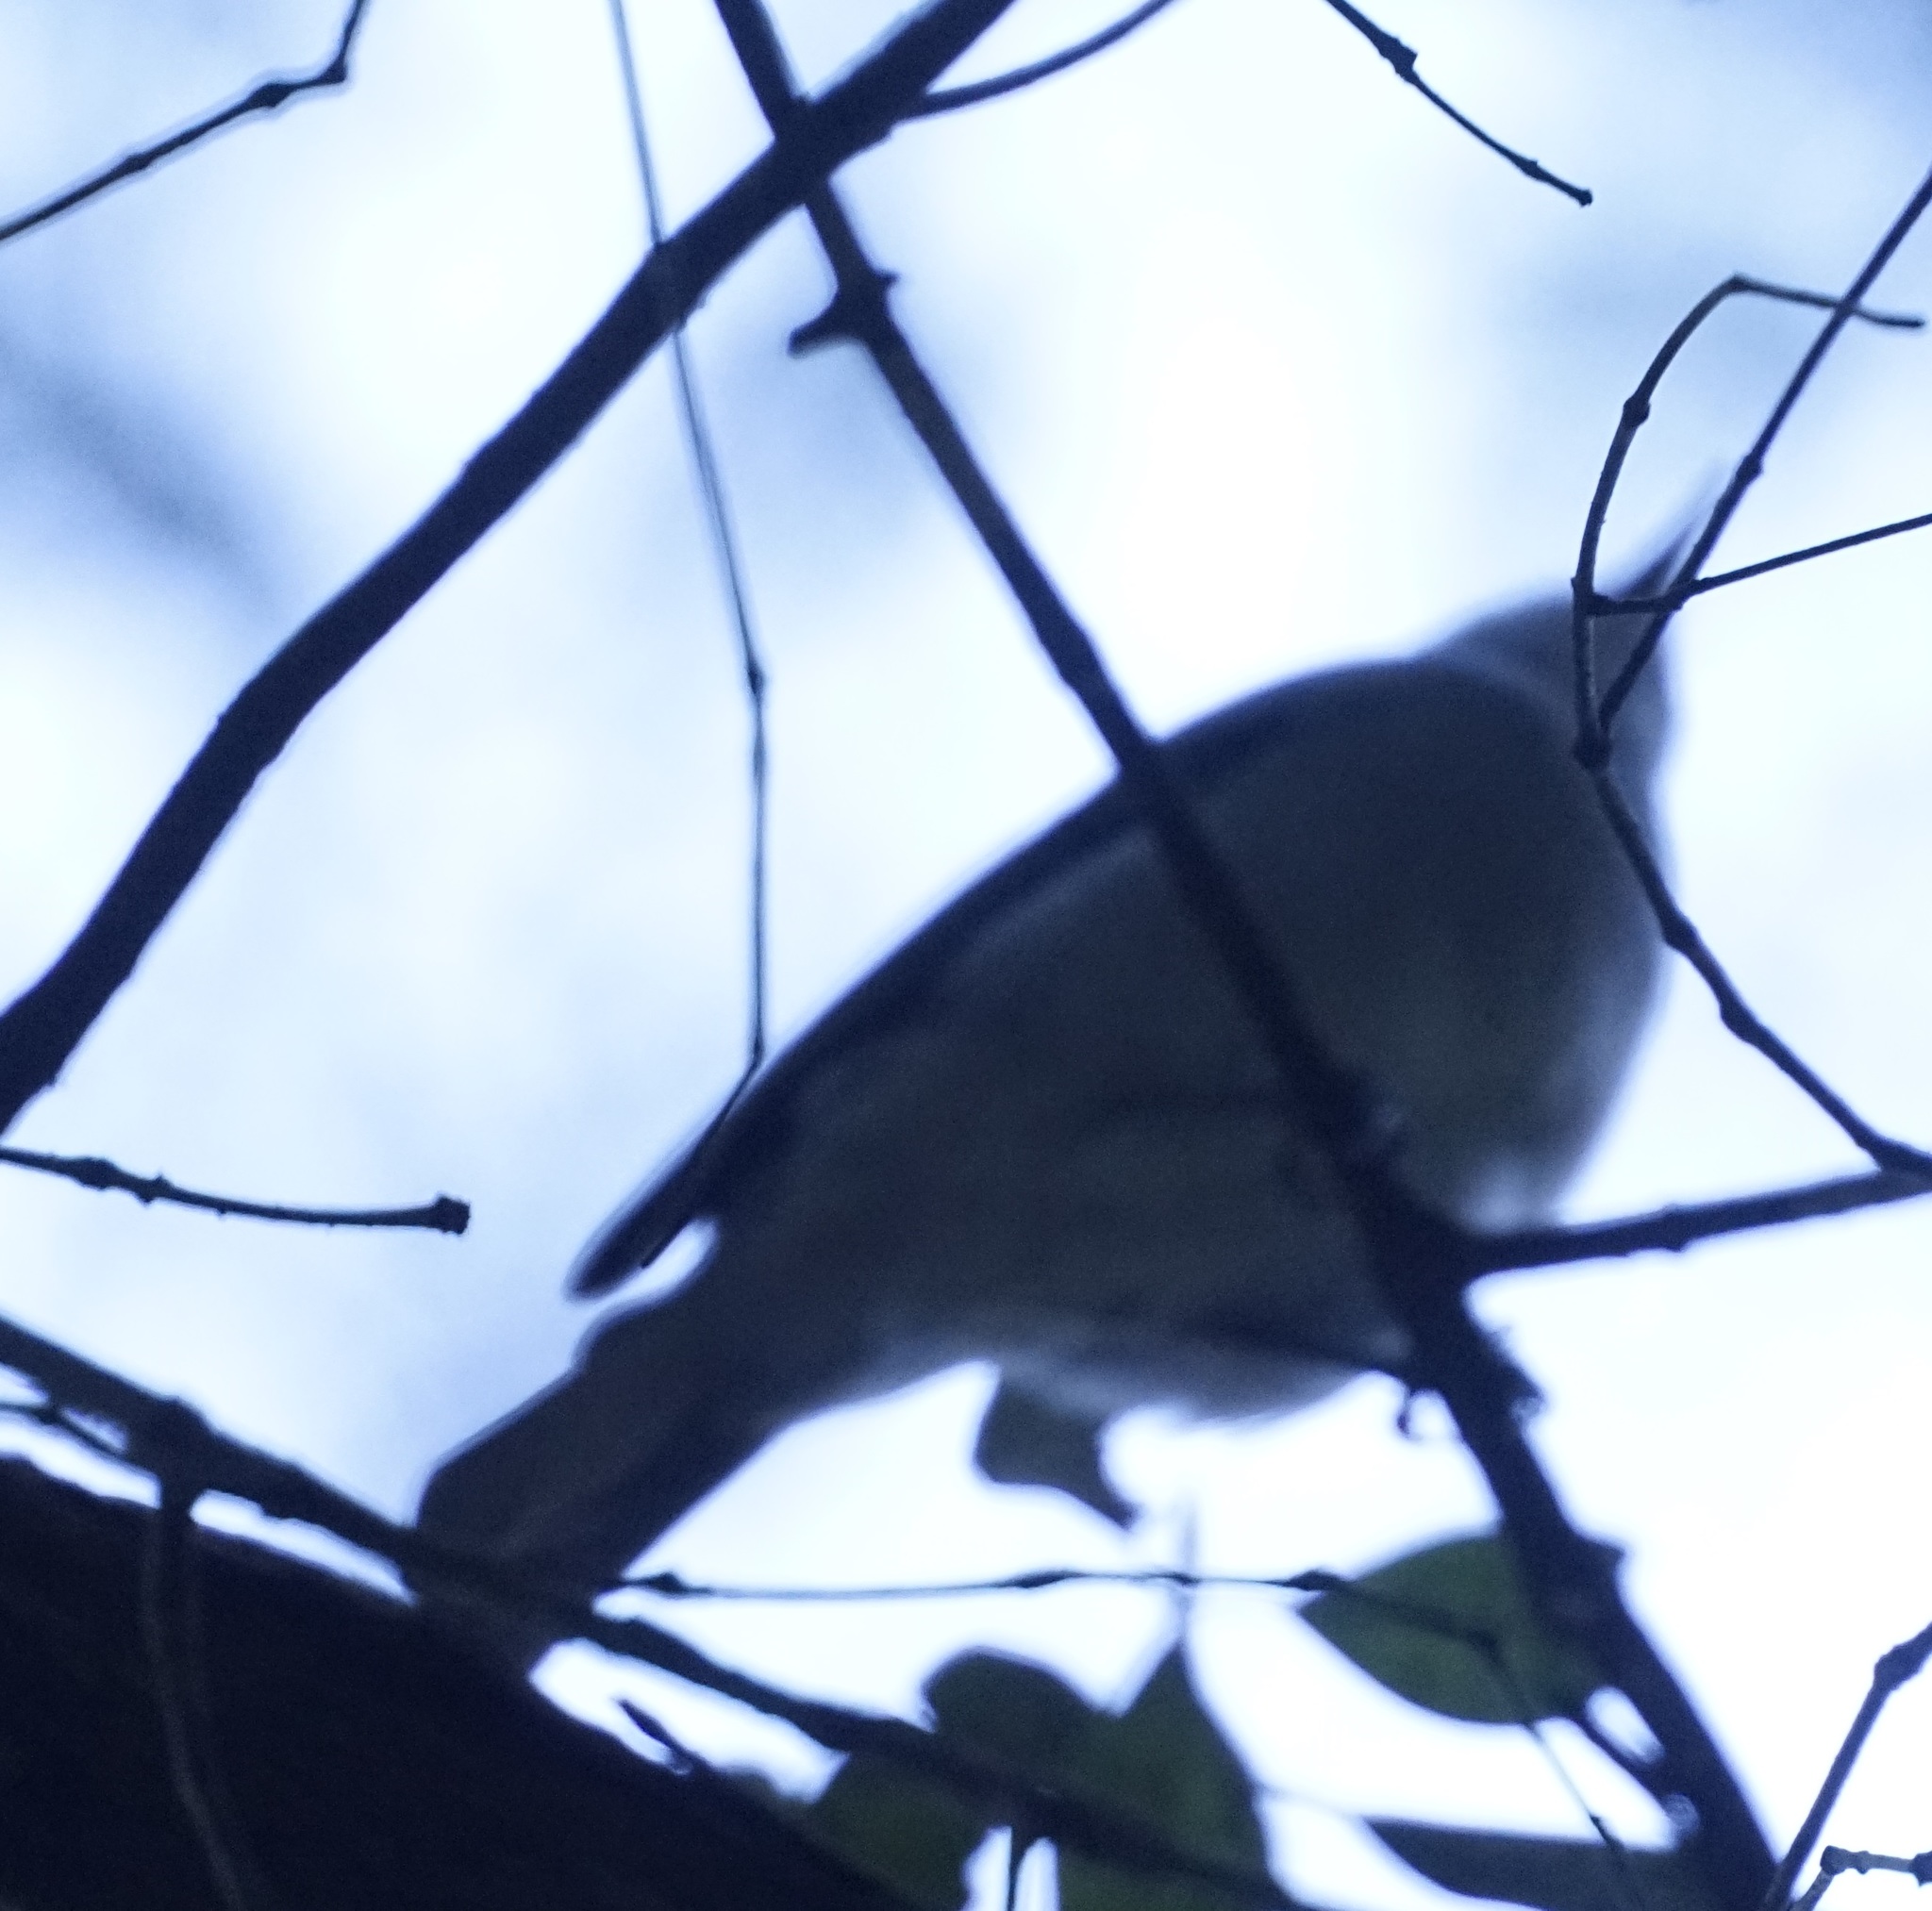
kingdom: Animalia
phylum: Chordata
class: Aves
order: Passeriformes
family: Pachycephalidae
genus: Colluricincla
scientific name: Colluricincla harmonica
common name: Grey shrikethrush
